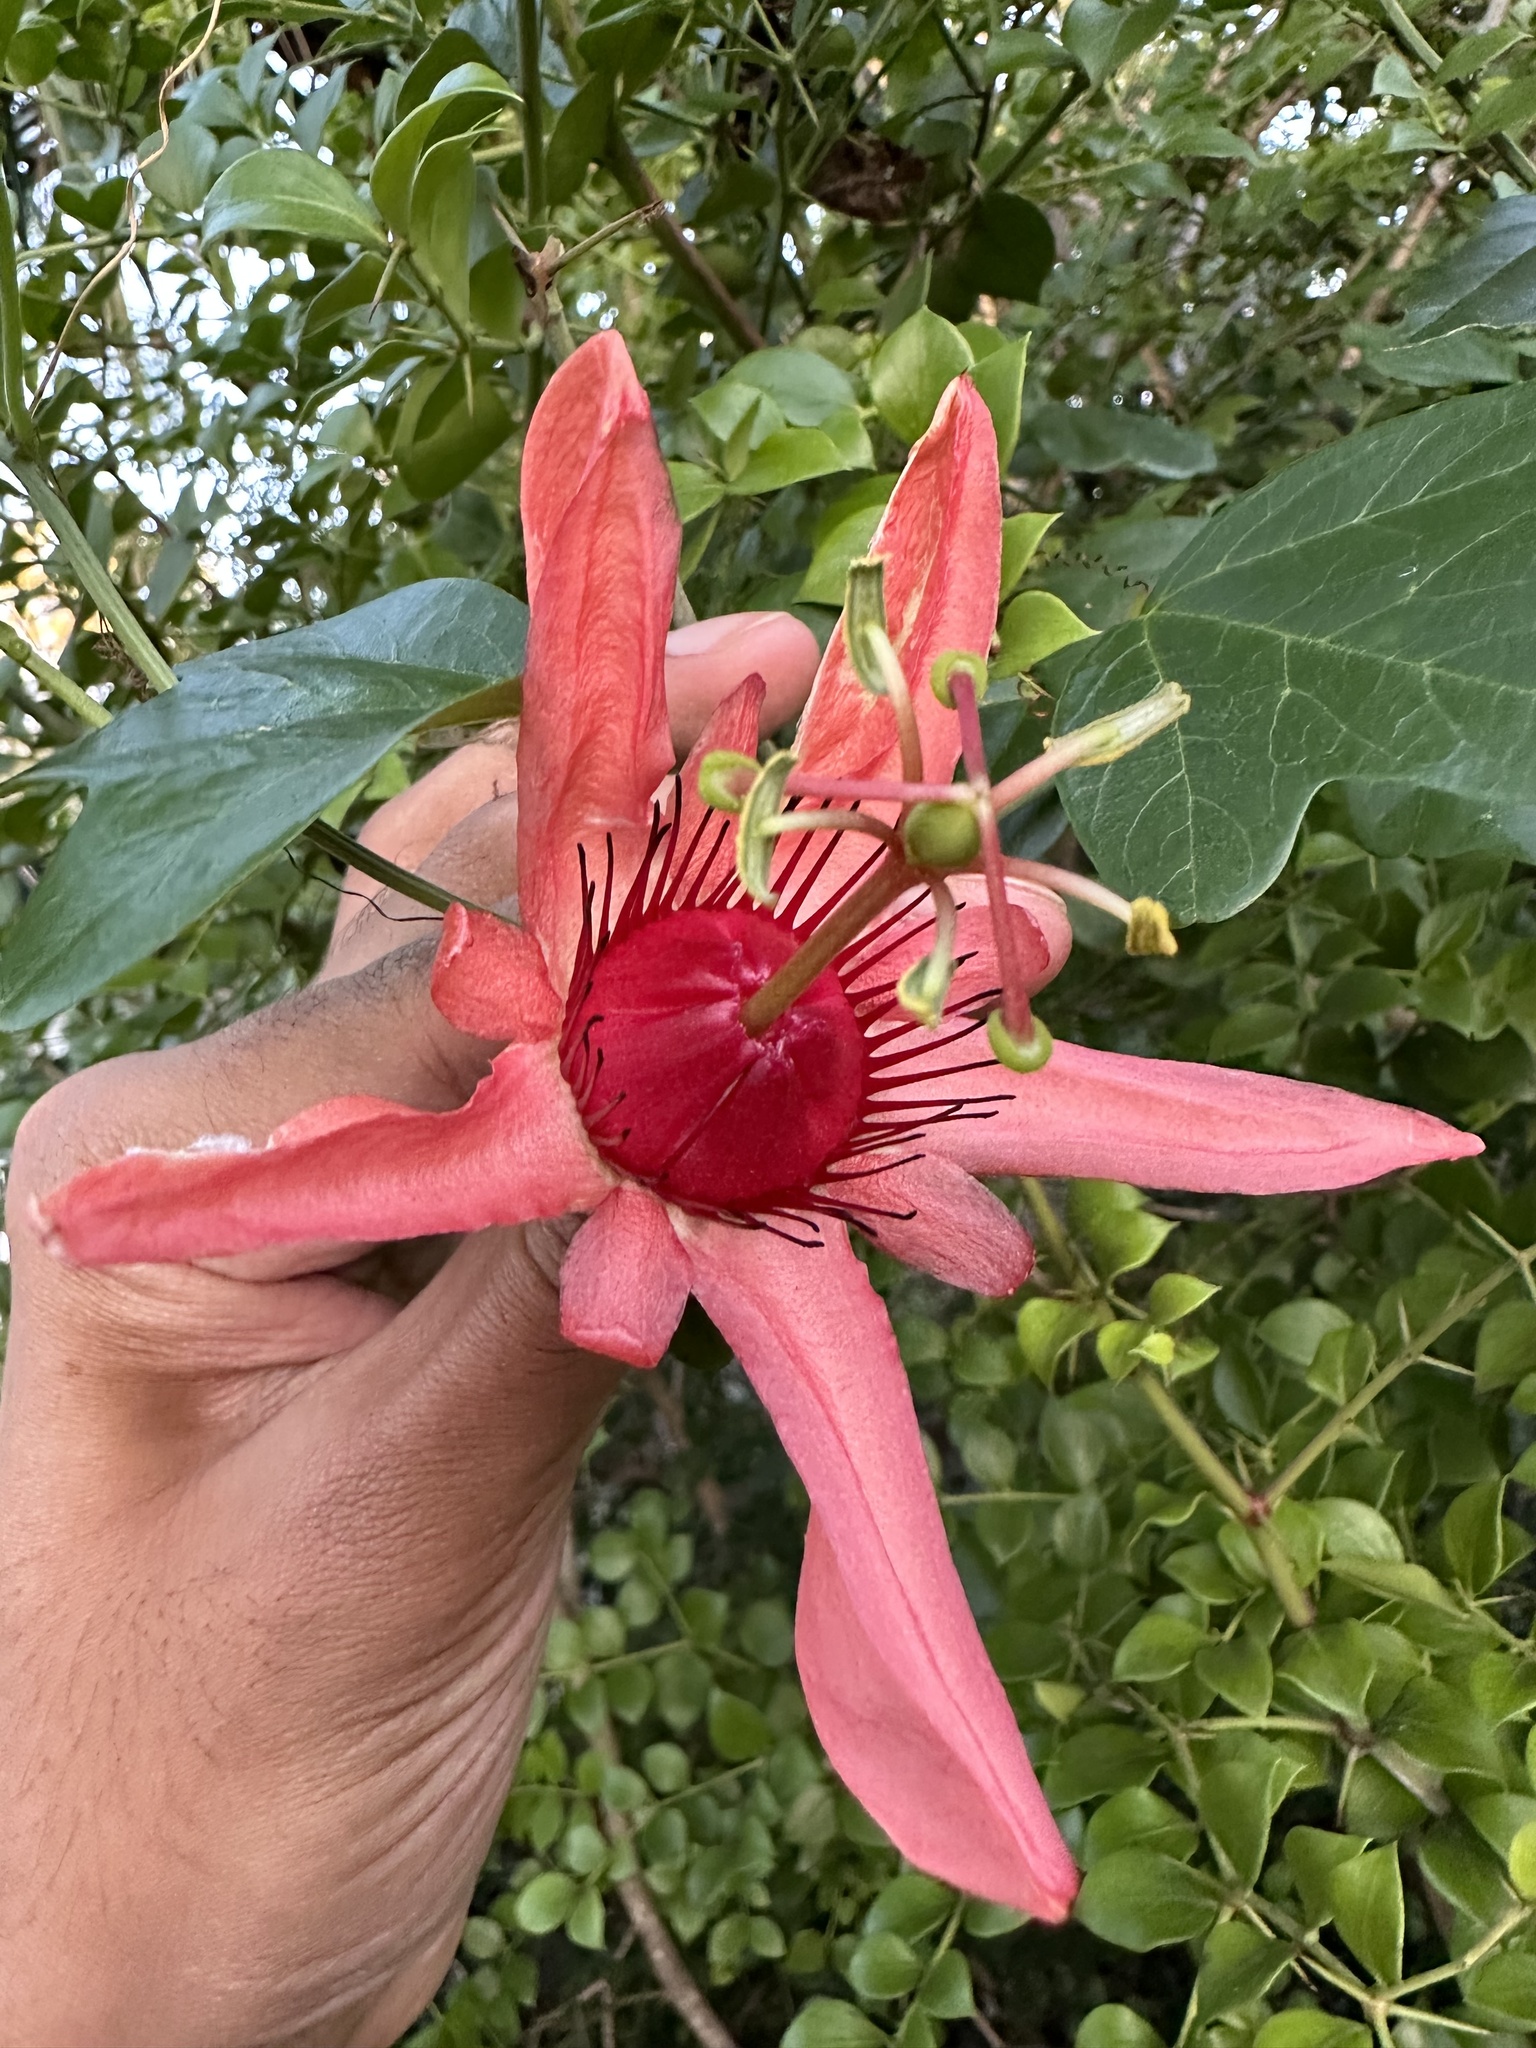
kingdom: Plantae
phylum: Tracheophyta
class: Magnoliopsida
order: Malpighiales
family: Passifloraceae
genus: Passiflora
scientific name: Passiflora aurantia
